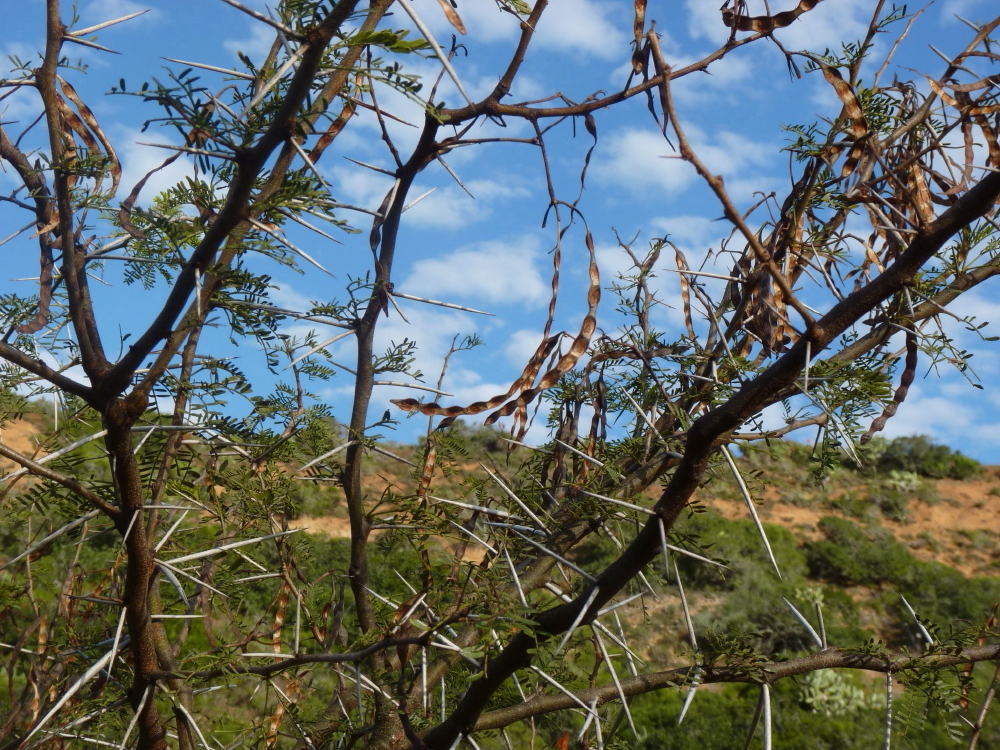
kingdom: Plantae
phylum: Tracheophyta
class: Magnoliopsida
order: Fabales
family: Fabaceae
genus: Vachellia
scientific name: Vachellia karroo
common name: Sweet thorn
